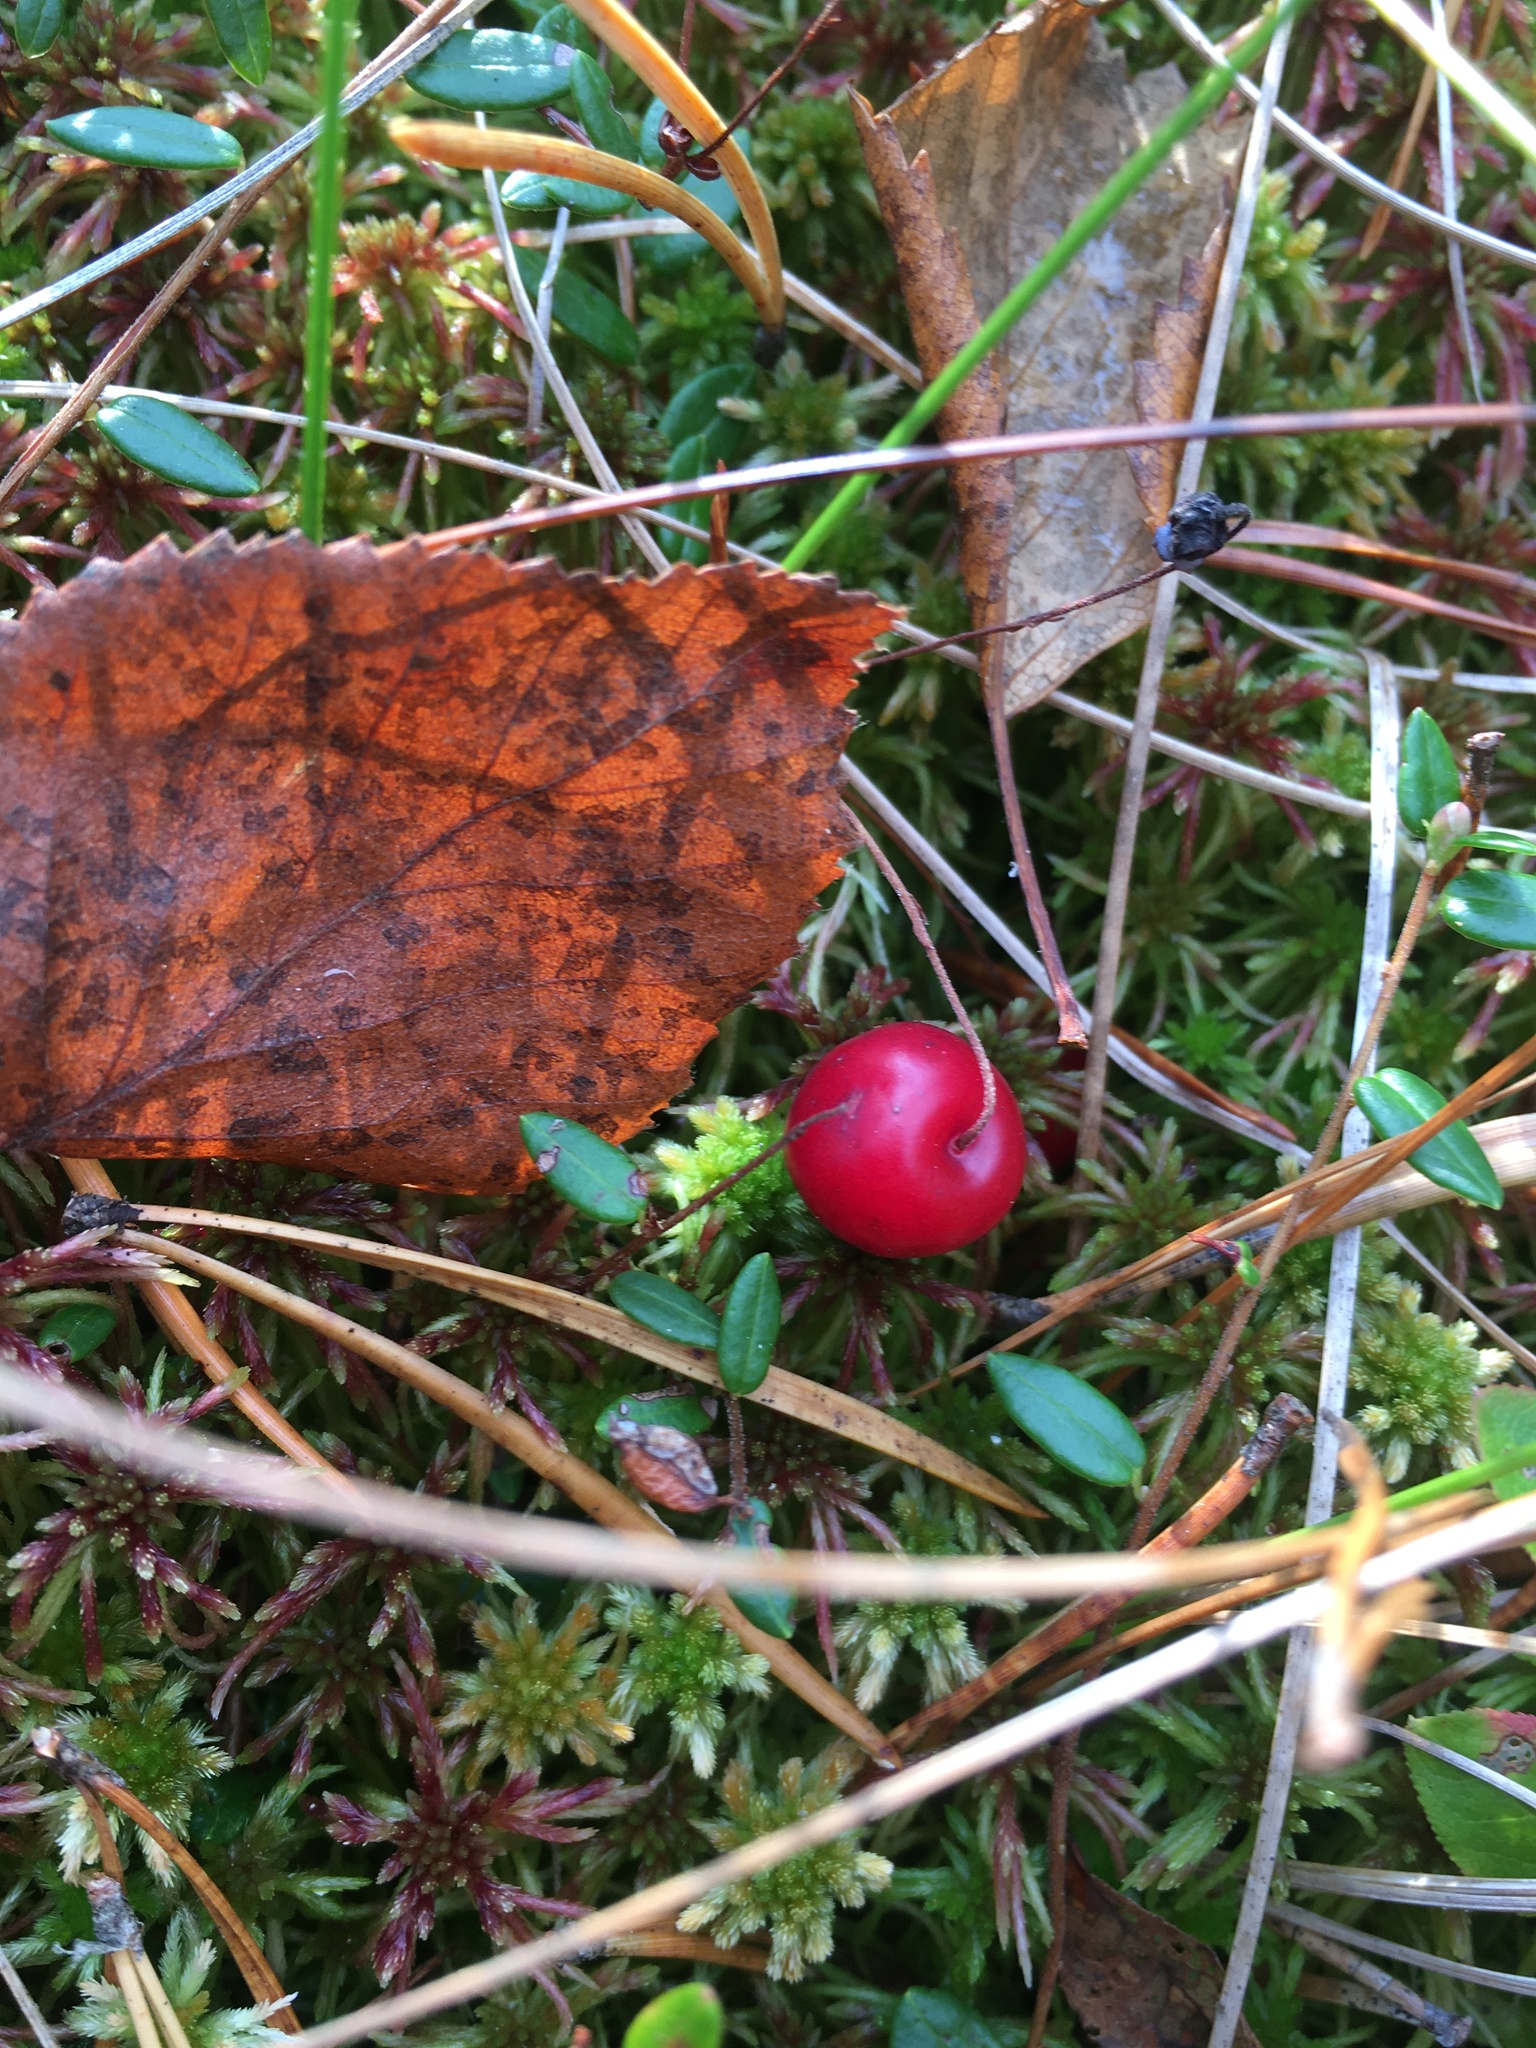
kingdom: Plantae
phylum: Tracheophyta
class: Magnoliopsida
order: Ericales
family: Ericaceae
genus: Vaccinium
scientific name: Vaccinium oxycoccos
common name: Cranberry
